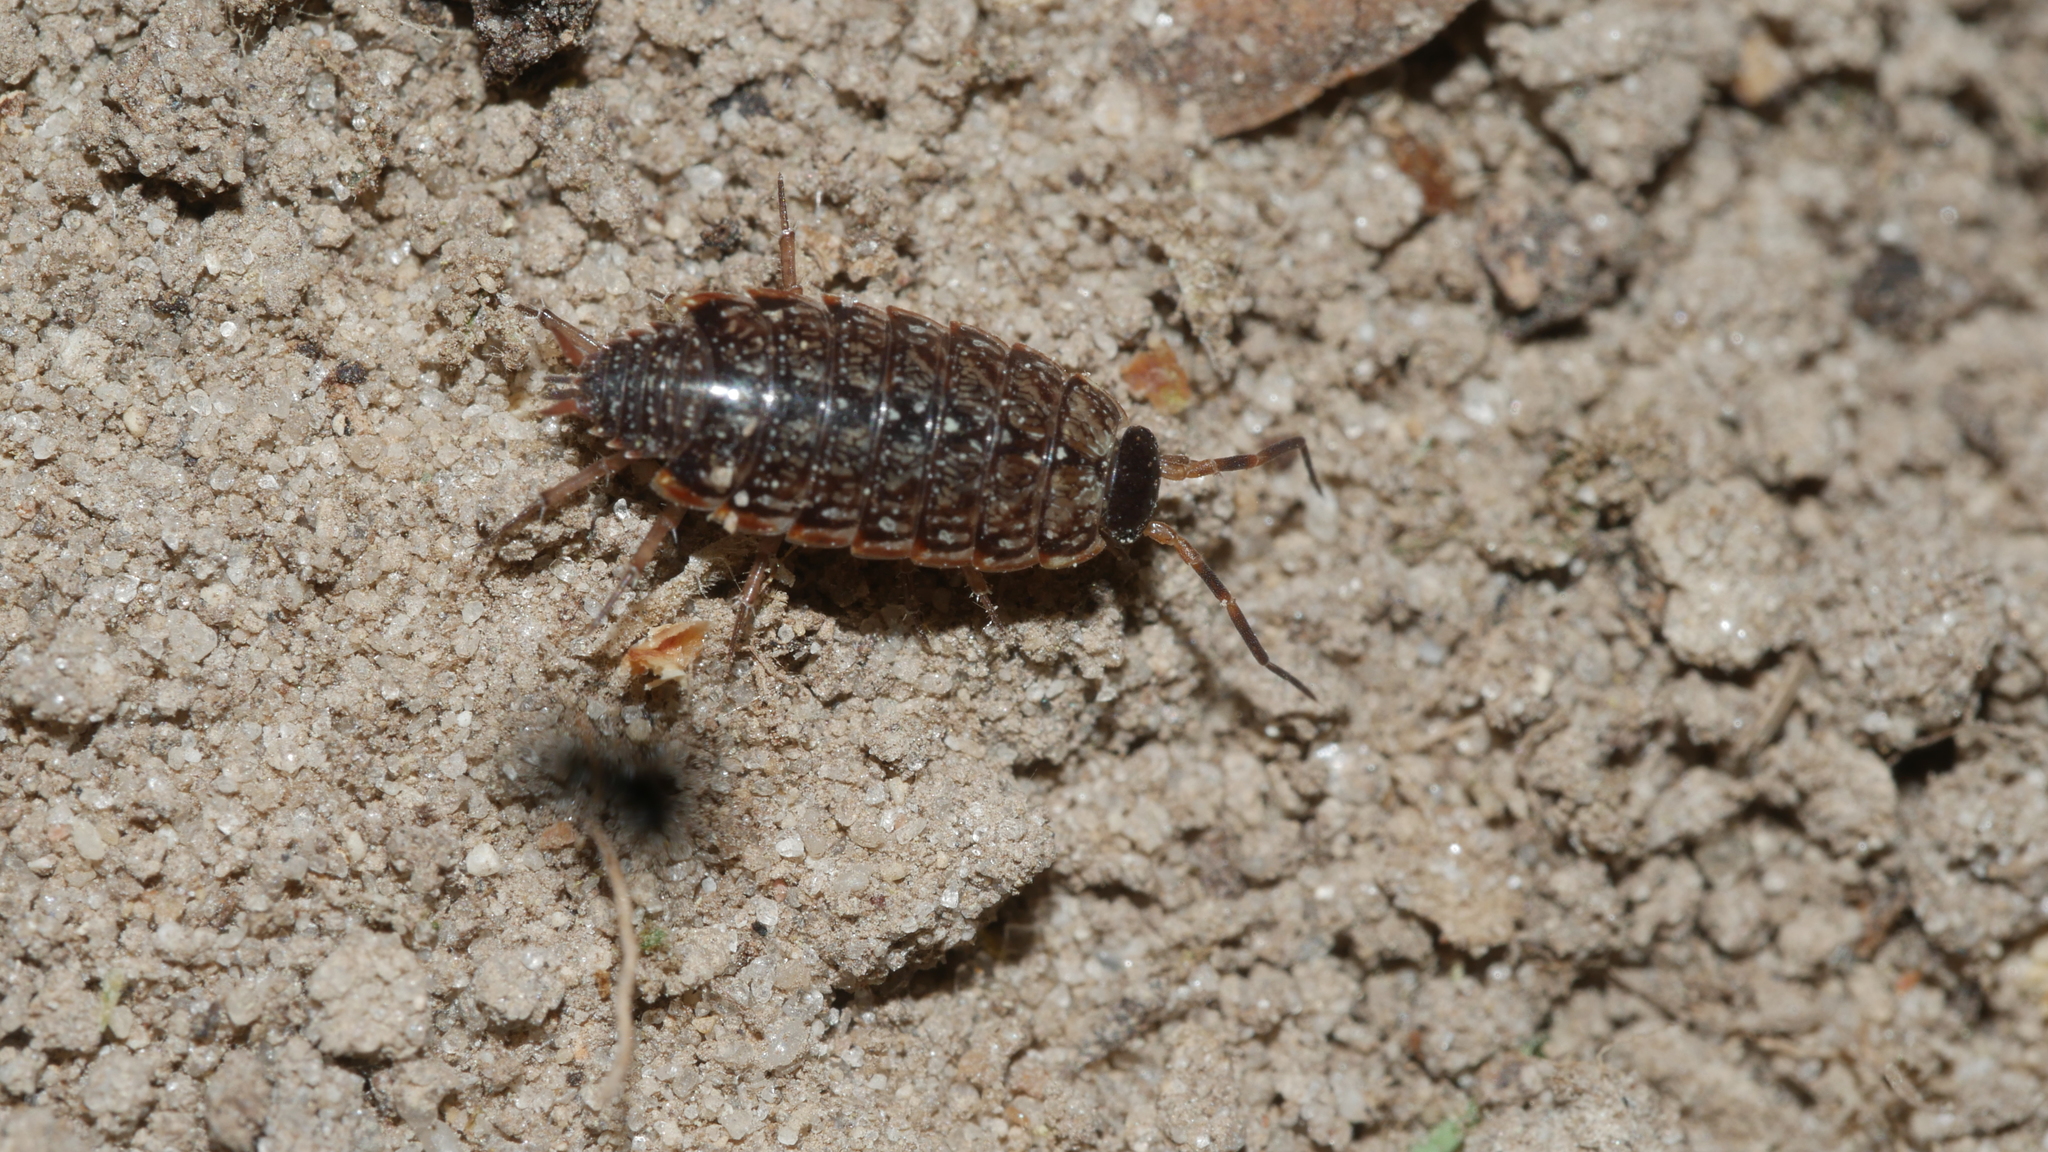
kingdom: Animalia
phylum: Arthropoda
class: Malacostraca
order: Isopoda
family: Philosciidae
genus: Philoscia
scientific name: Philoscia muscorum
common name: Common striped woodlouse
